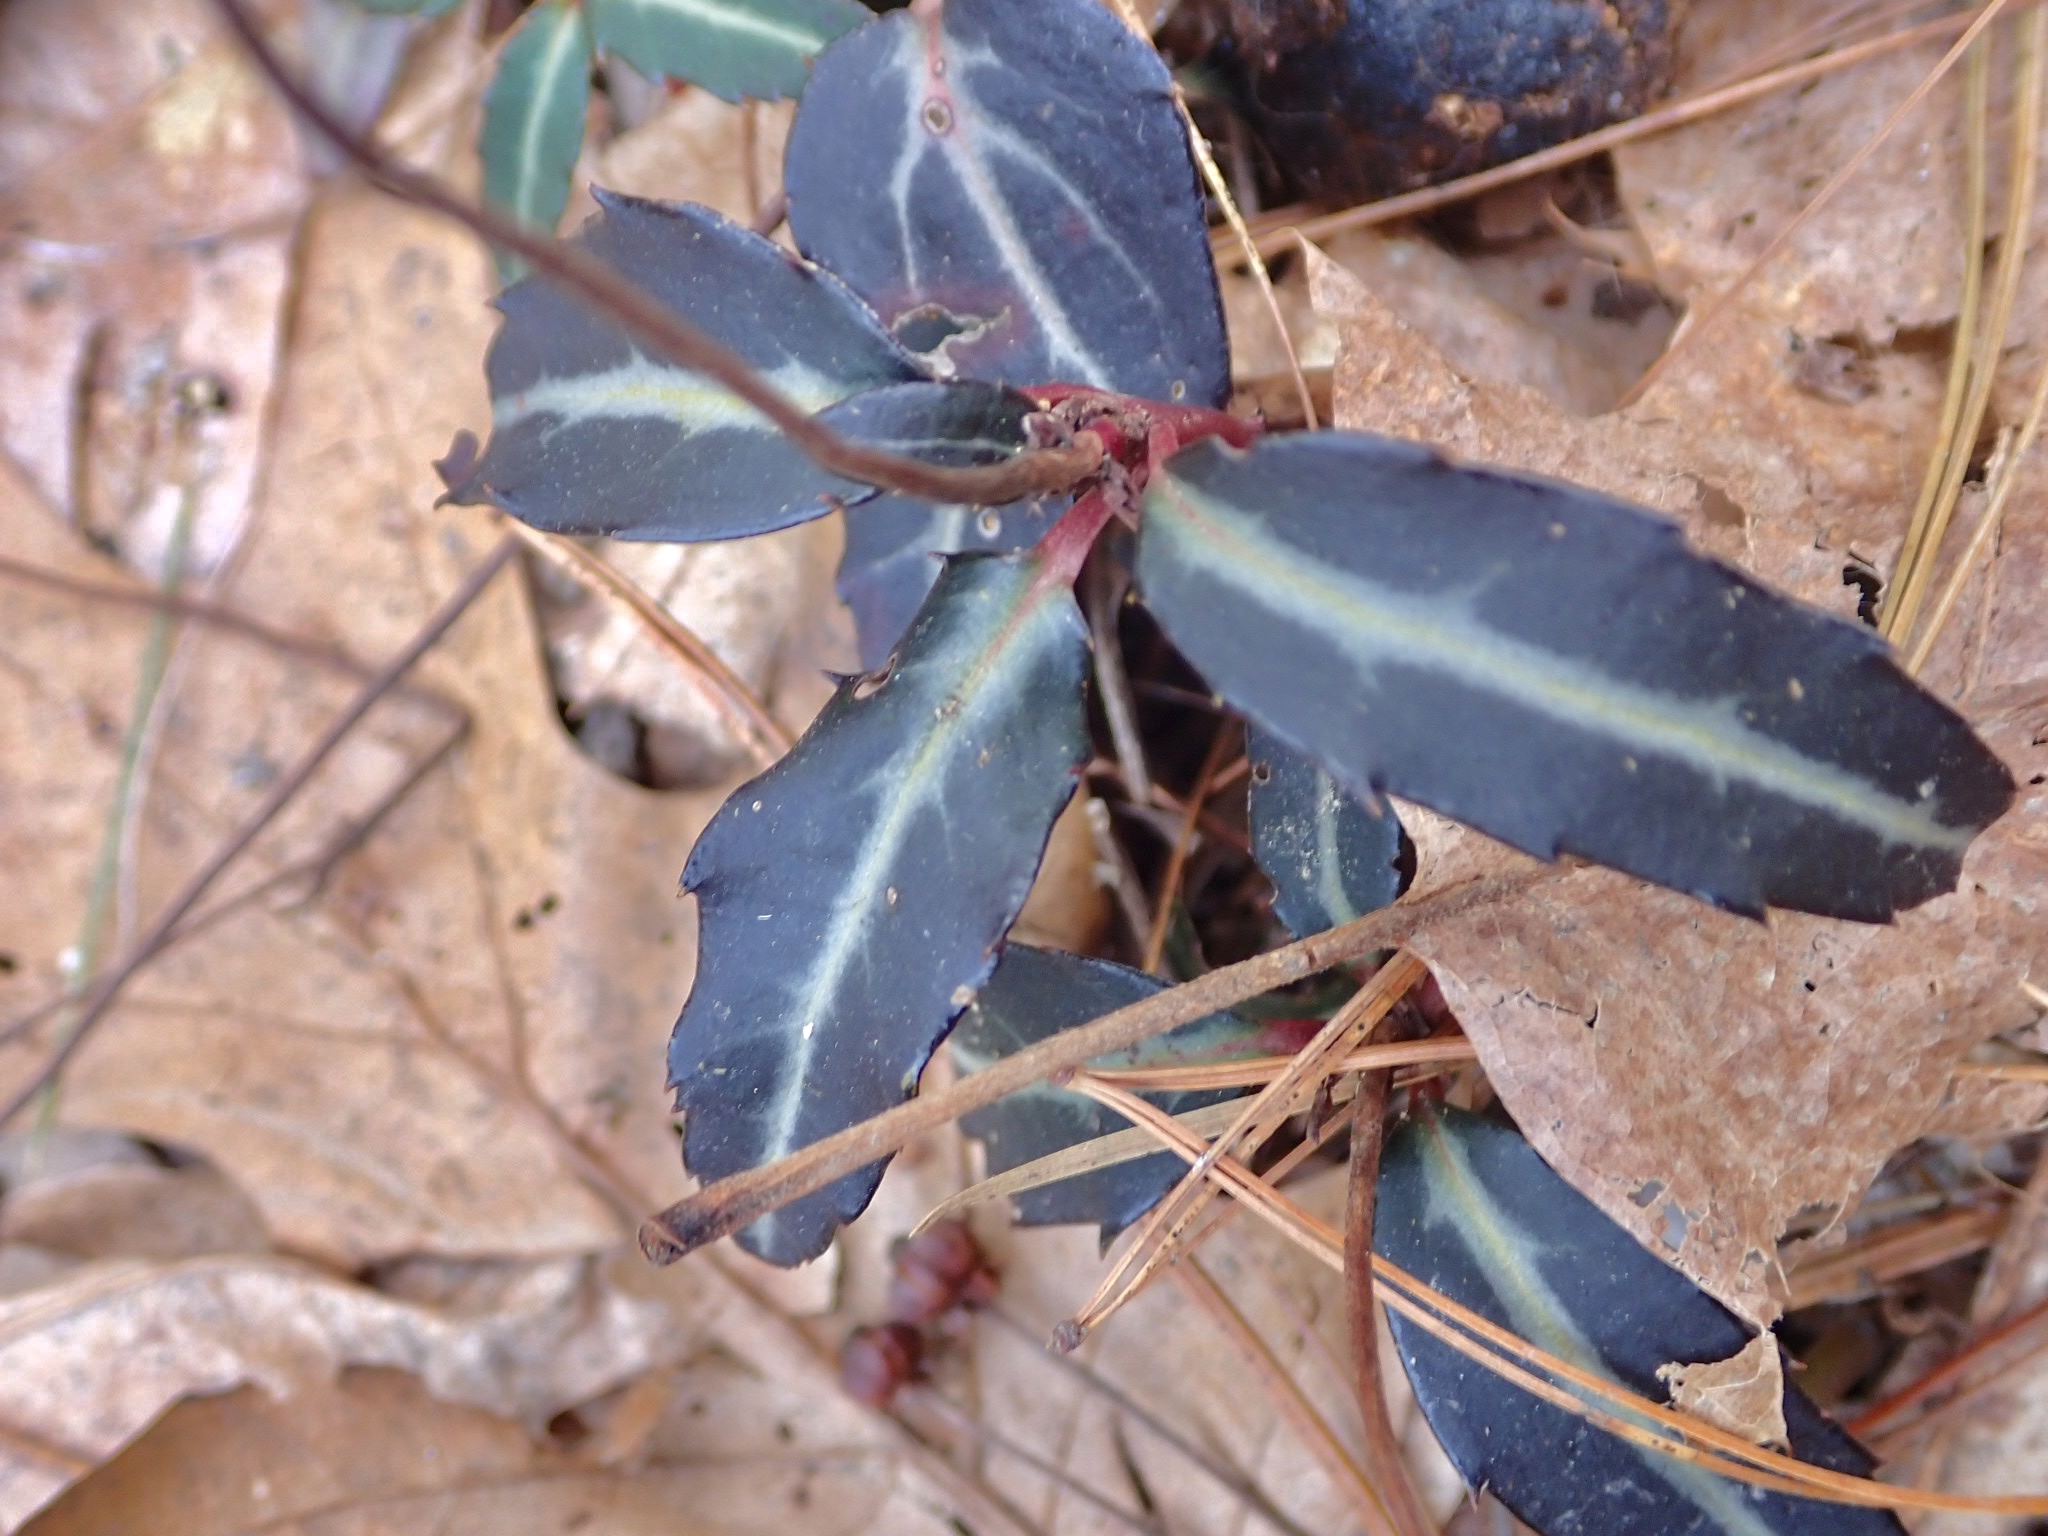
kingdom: Plantae
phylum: Tracheophyta
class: Magnoliopsida
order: Ericales
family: Ericaceae
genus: Chimaphila
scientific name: Chimaphila maculata
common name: Spotted pipsissewa
